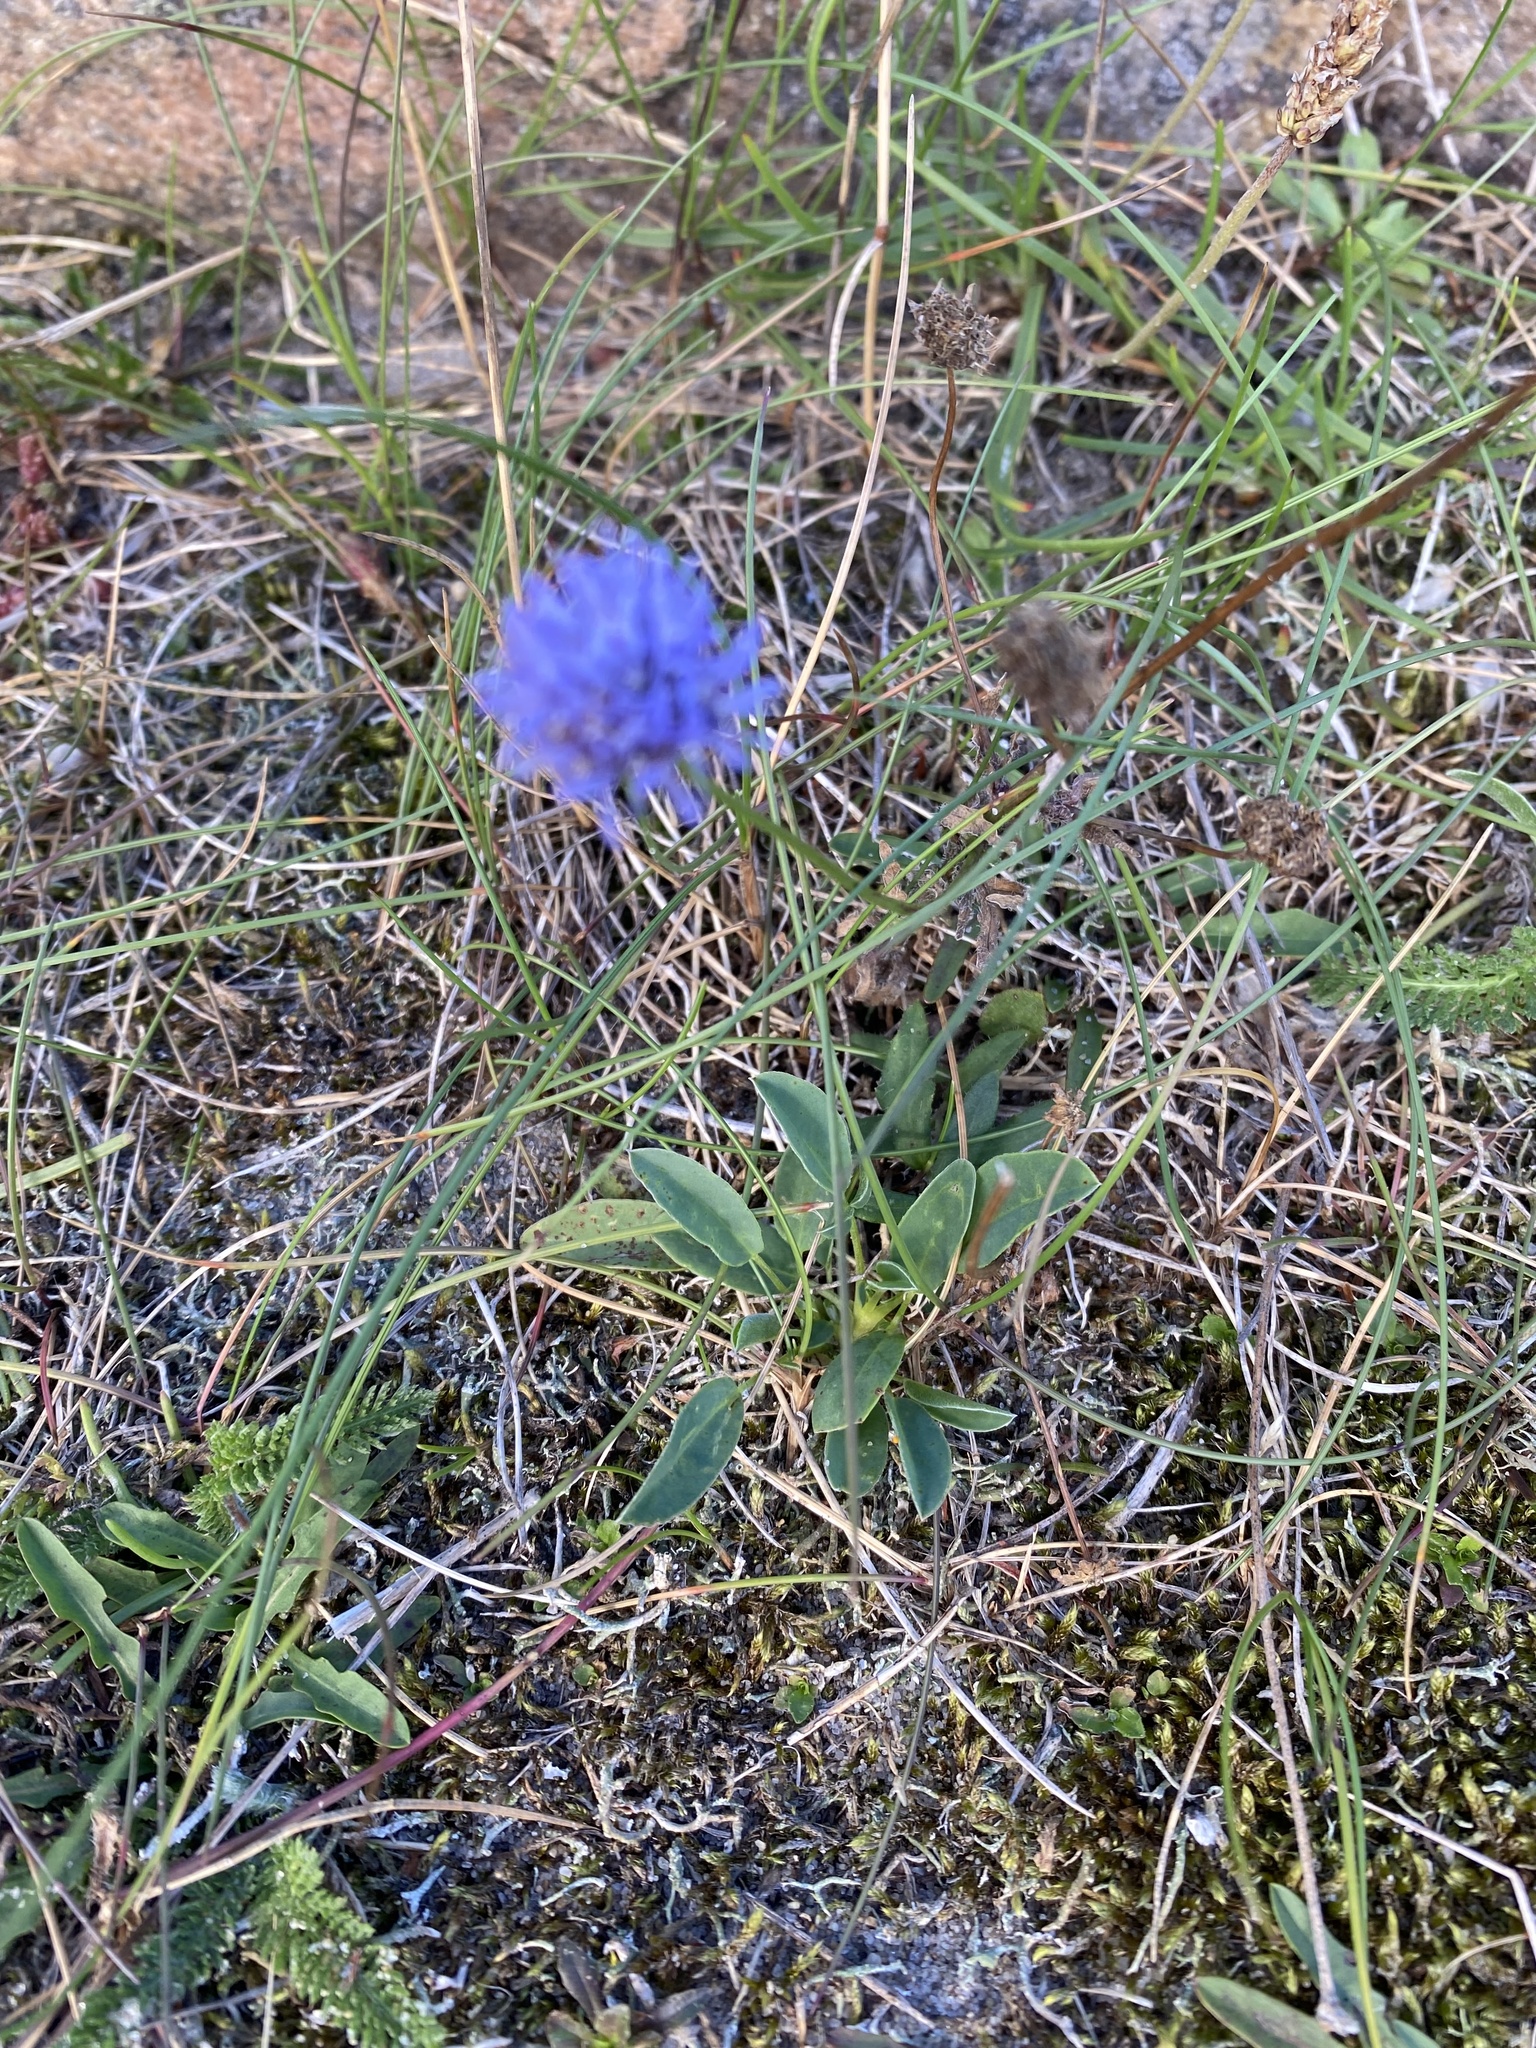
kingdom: Plantae
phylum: Tracheophyta
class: Magnoliopsida
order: Asterales
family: Campanulaceae
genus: Jasione
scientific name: Jasione montana
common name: Sheep's-bit
